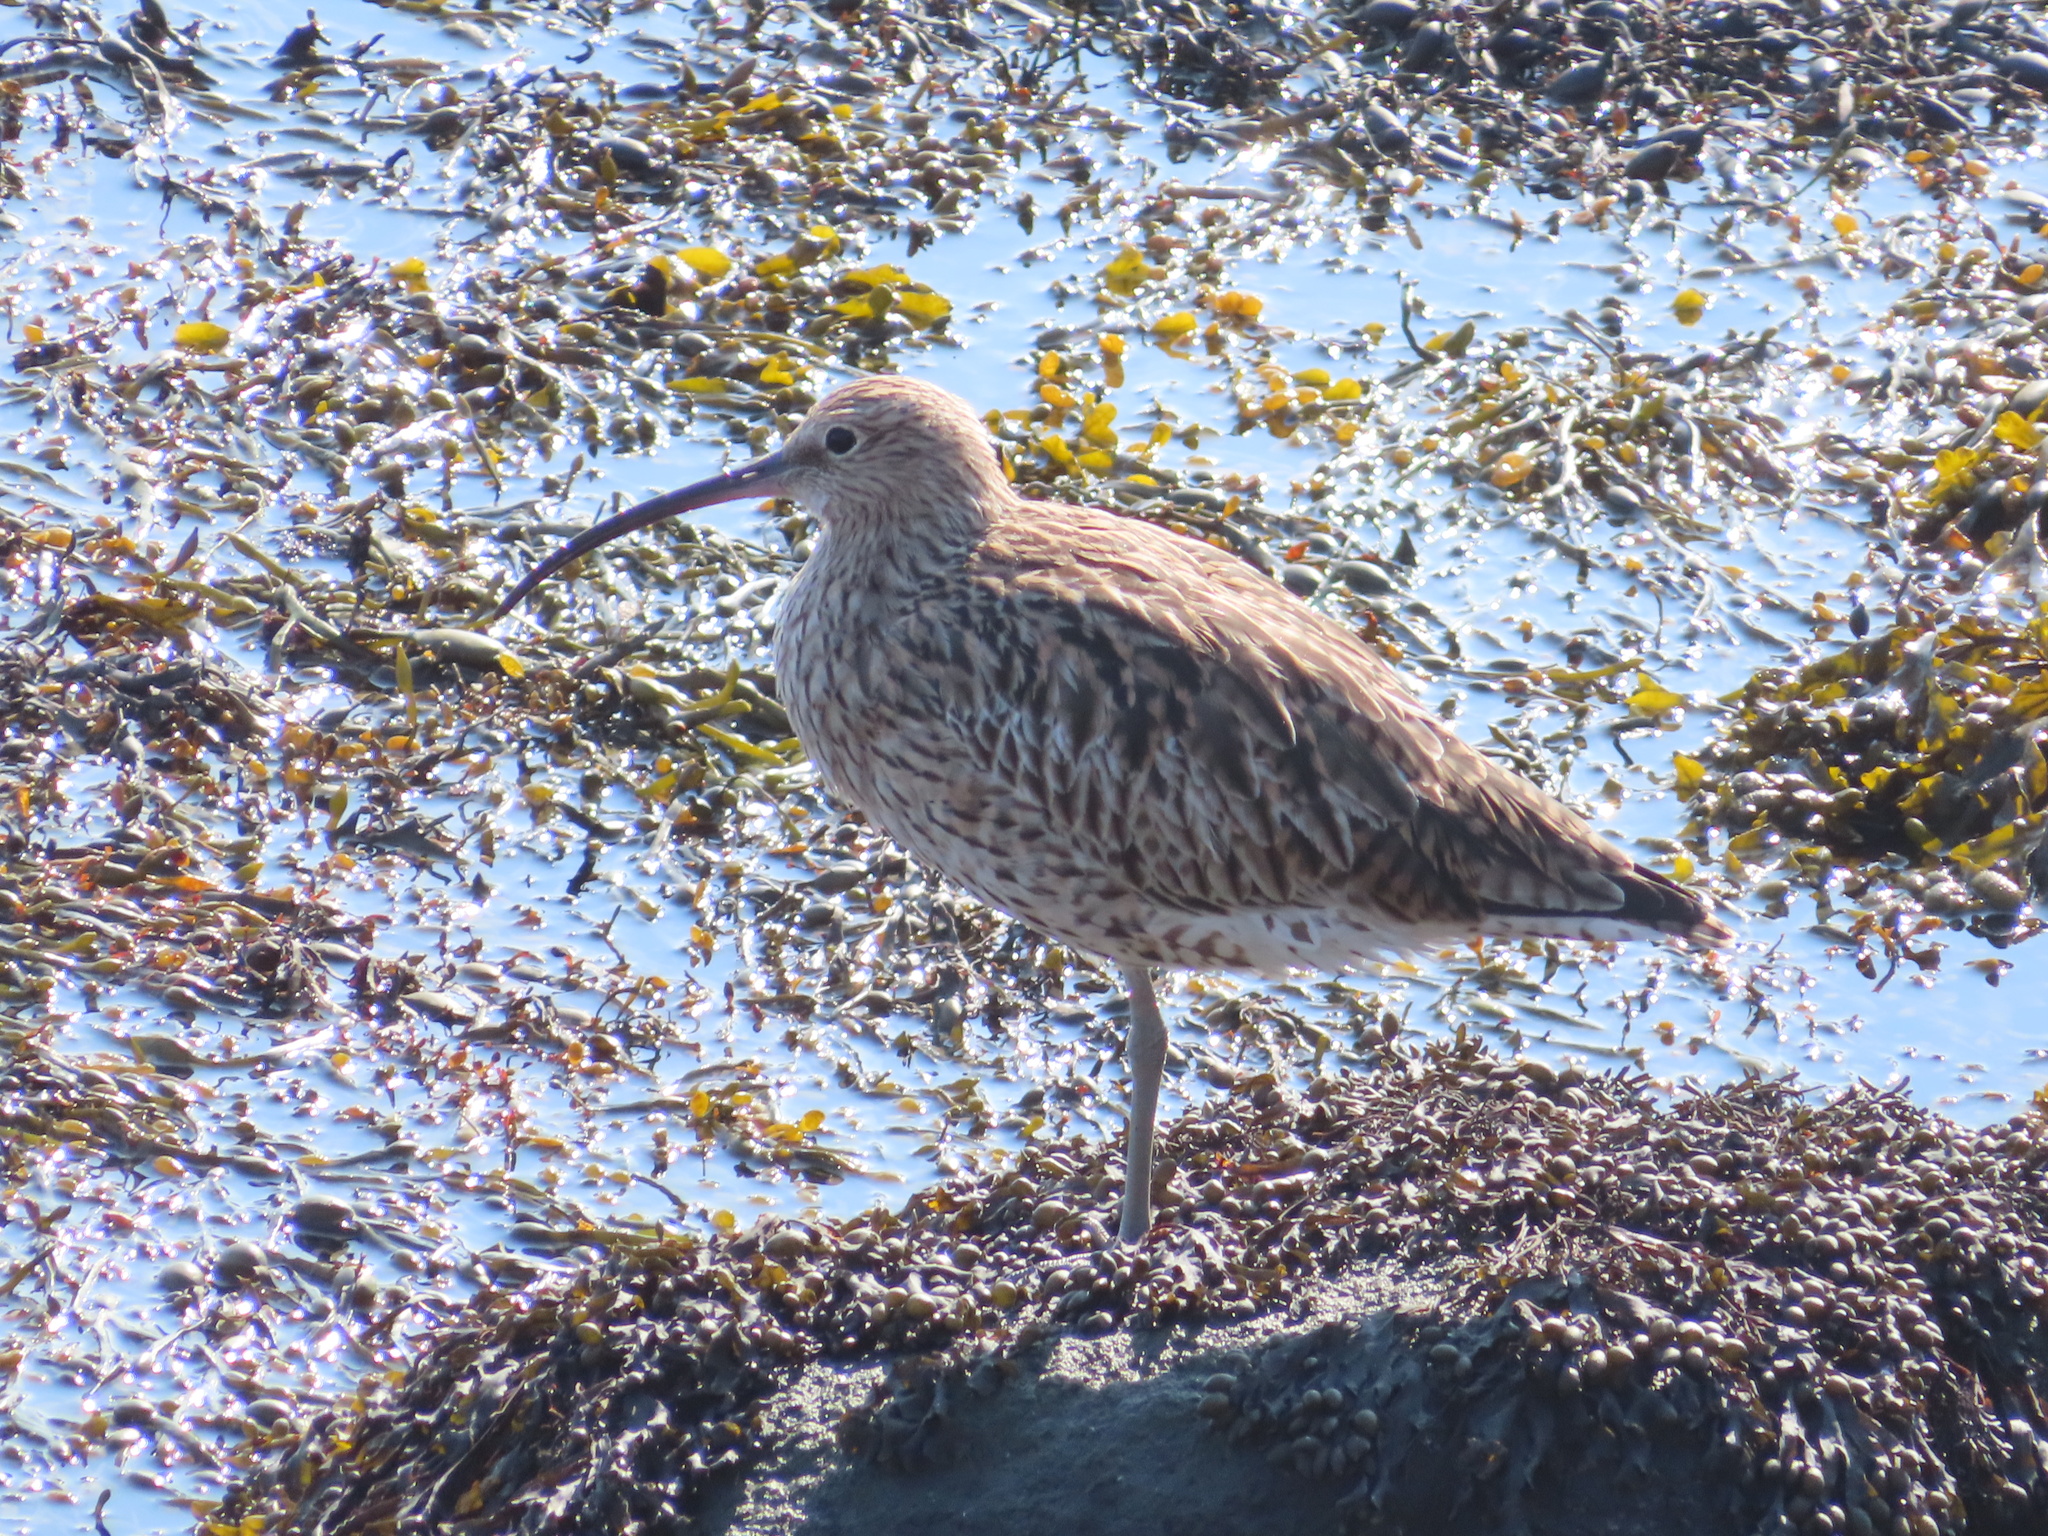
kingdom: Animalia
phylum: Chordata
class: Aves
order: Charadriiformes
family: Scolopacidae
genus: Numenius
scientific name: Numenius arquata
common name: Eurasian curlew
